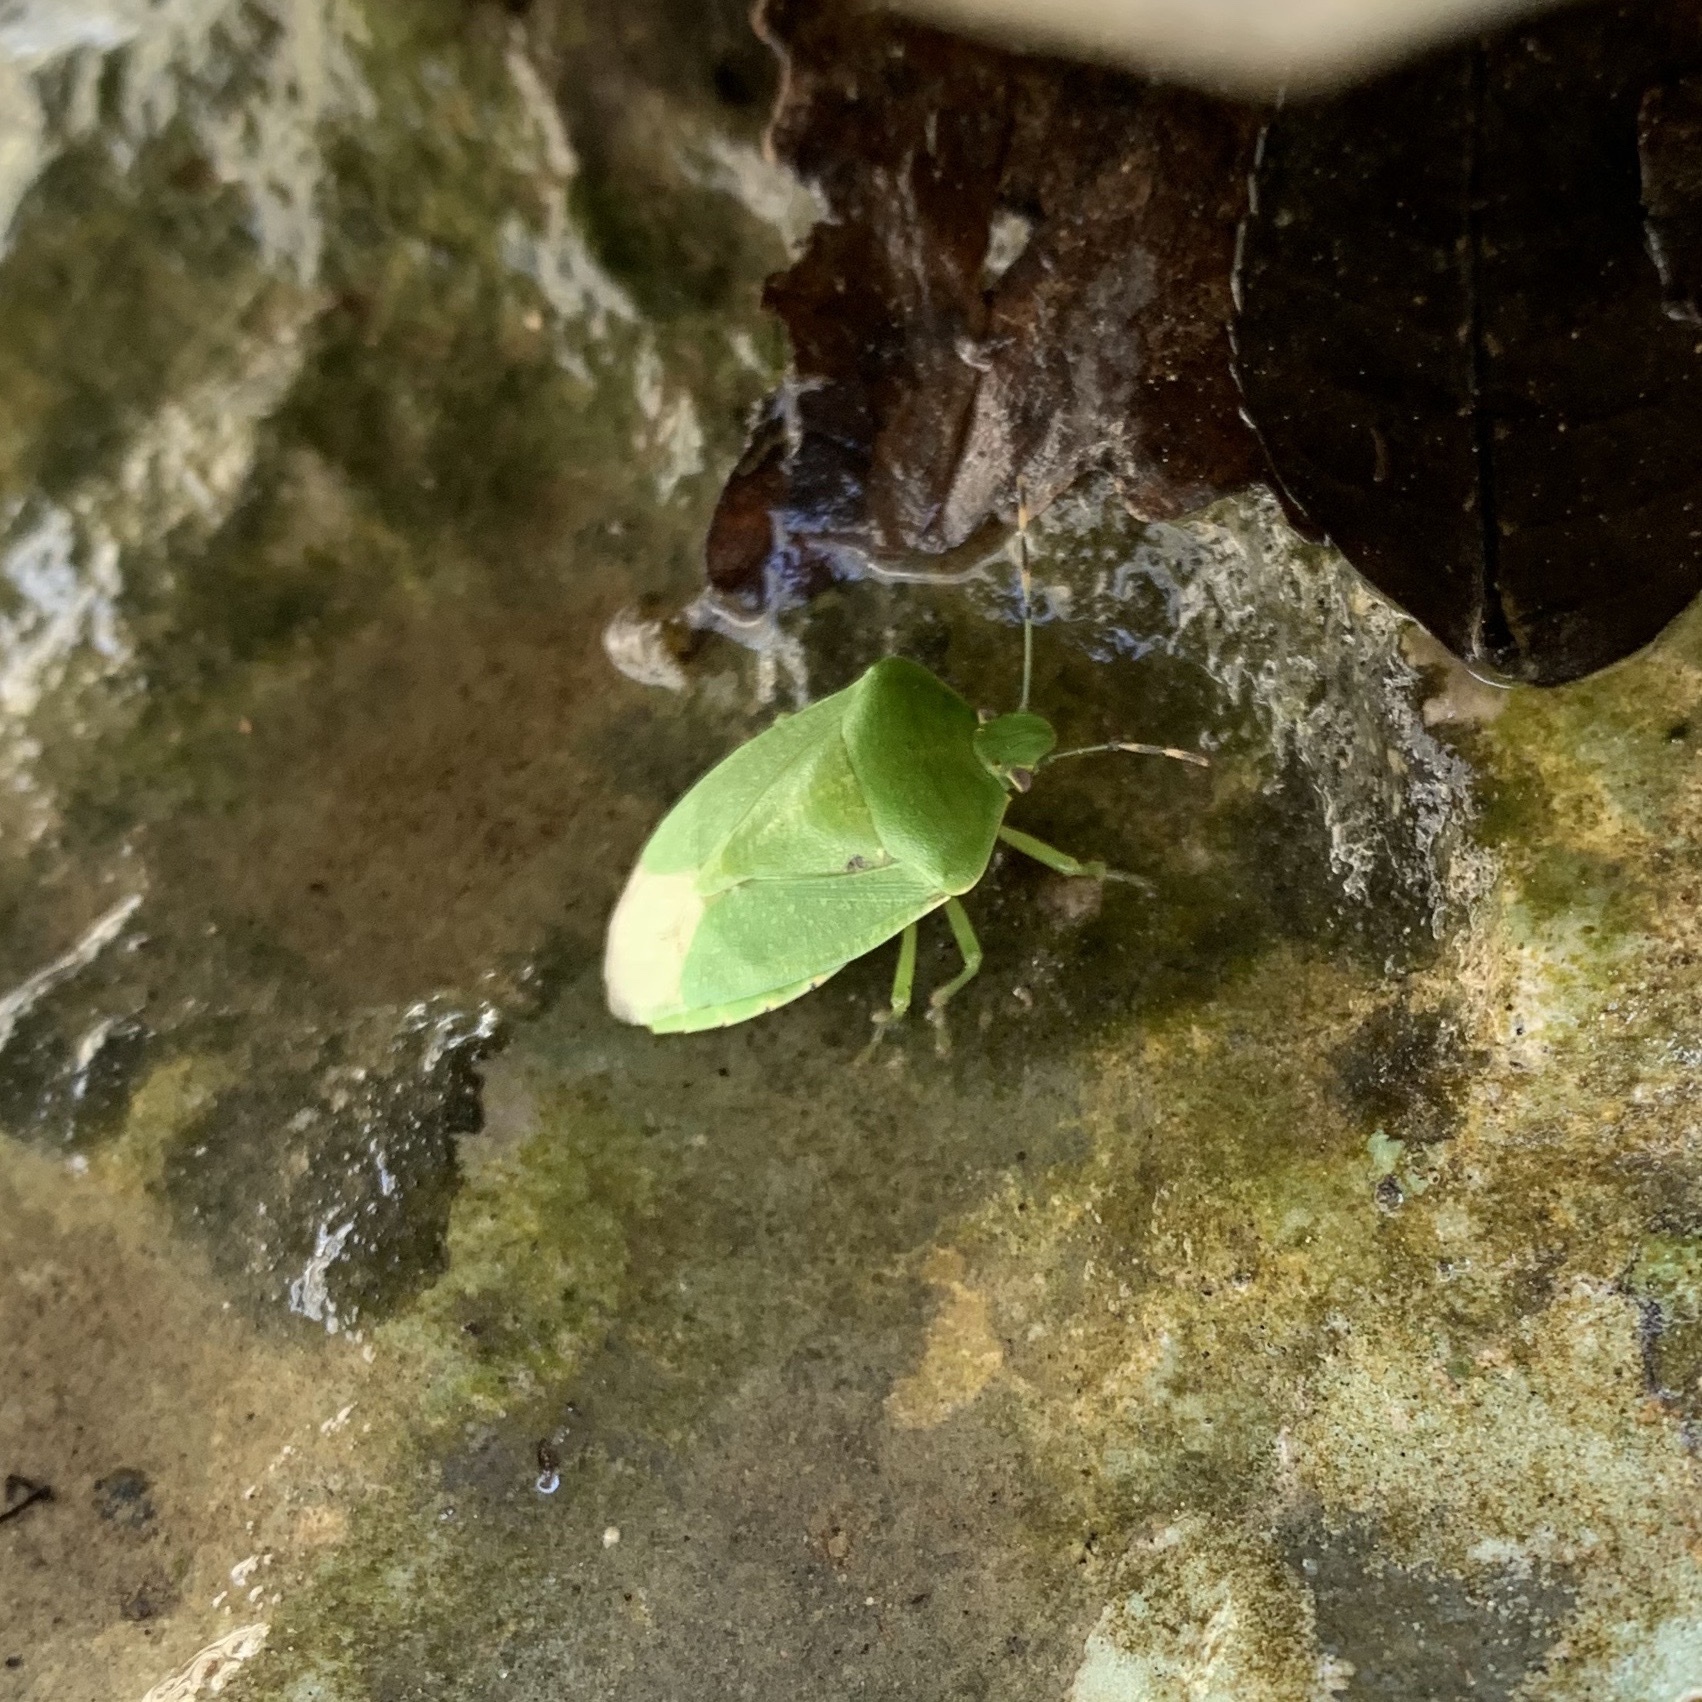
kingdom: Animalia
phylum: Arthropoda
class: Insecta
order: Hemiptera
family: Pentatomidae
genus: Chinavia
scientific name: Chinavia hilaris
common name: Green stink bug
